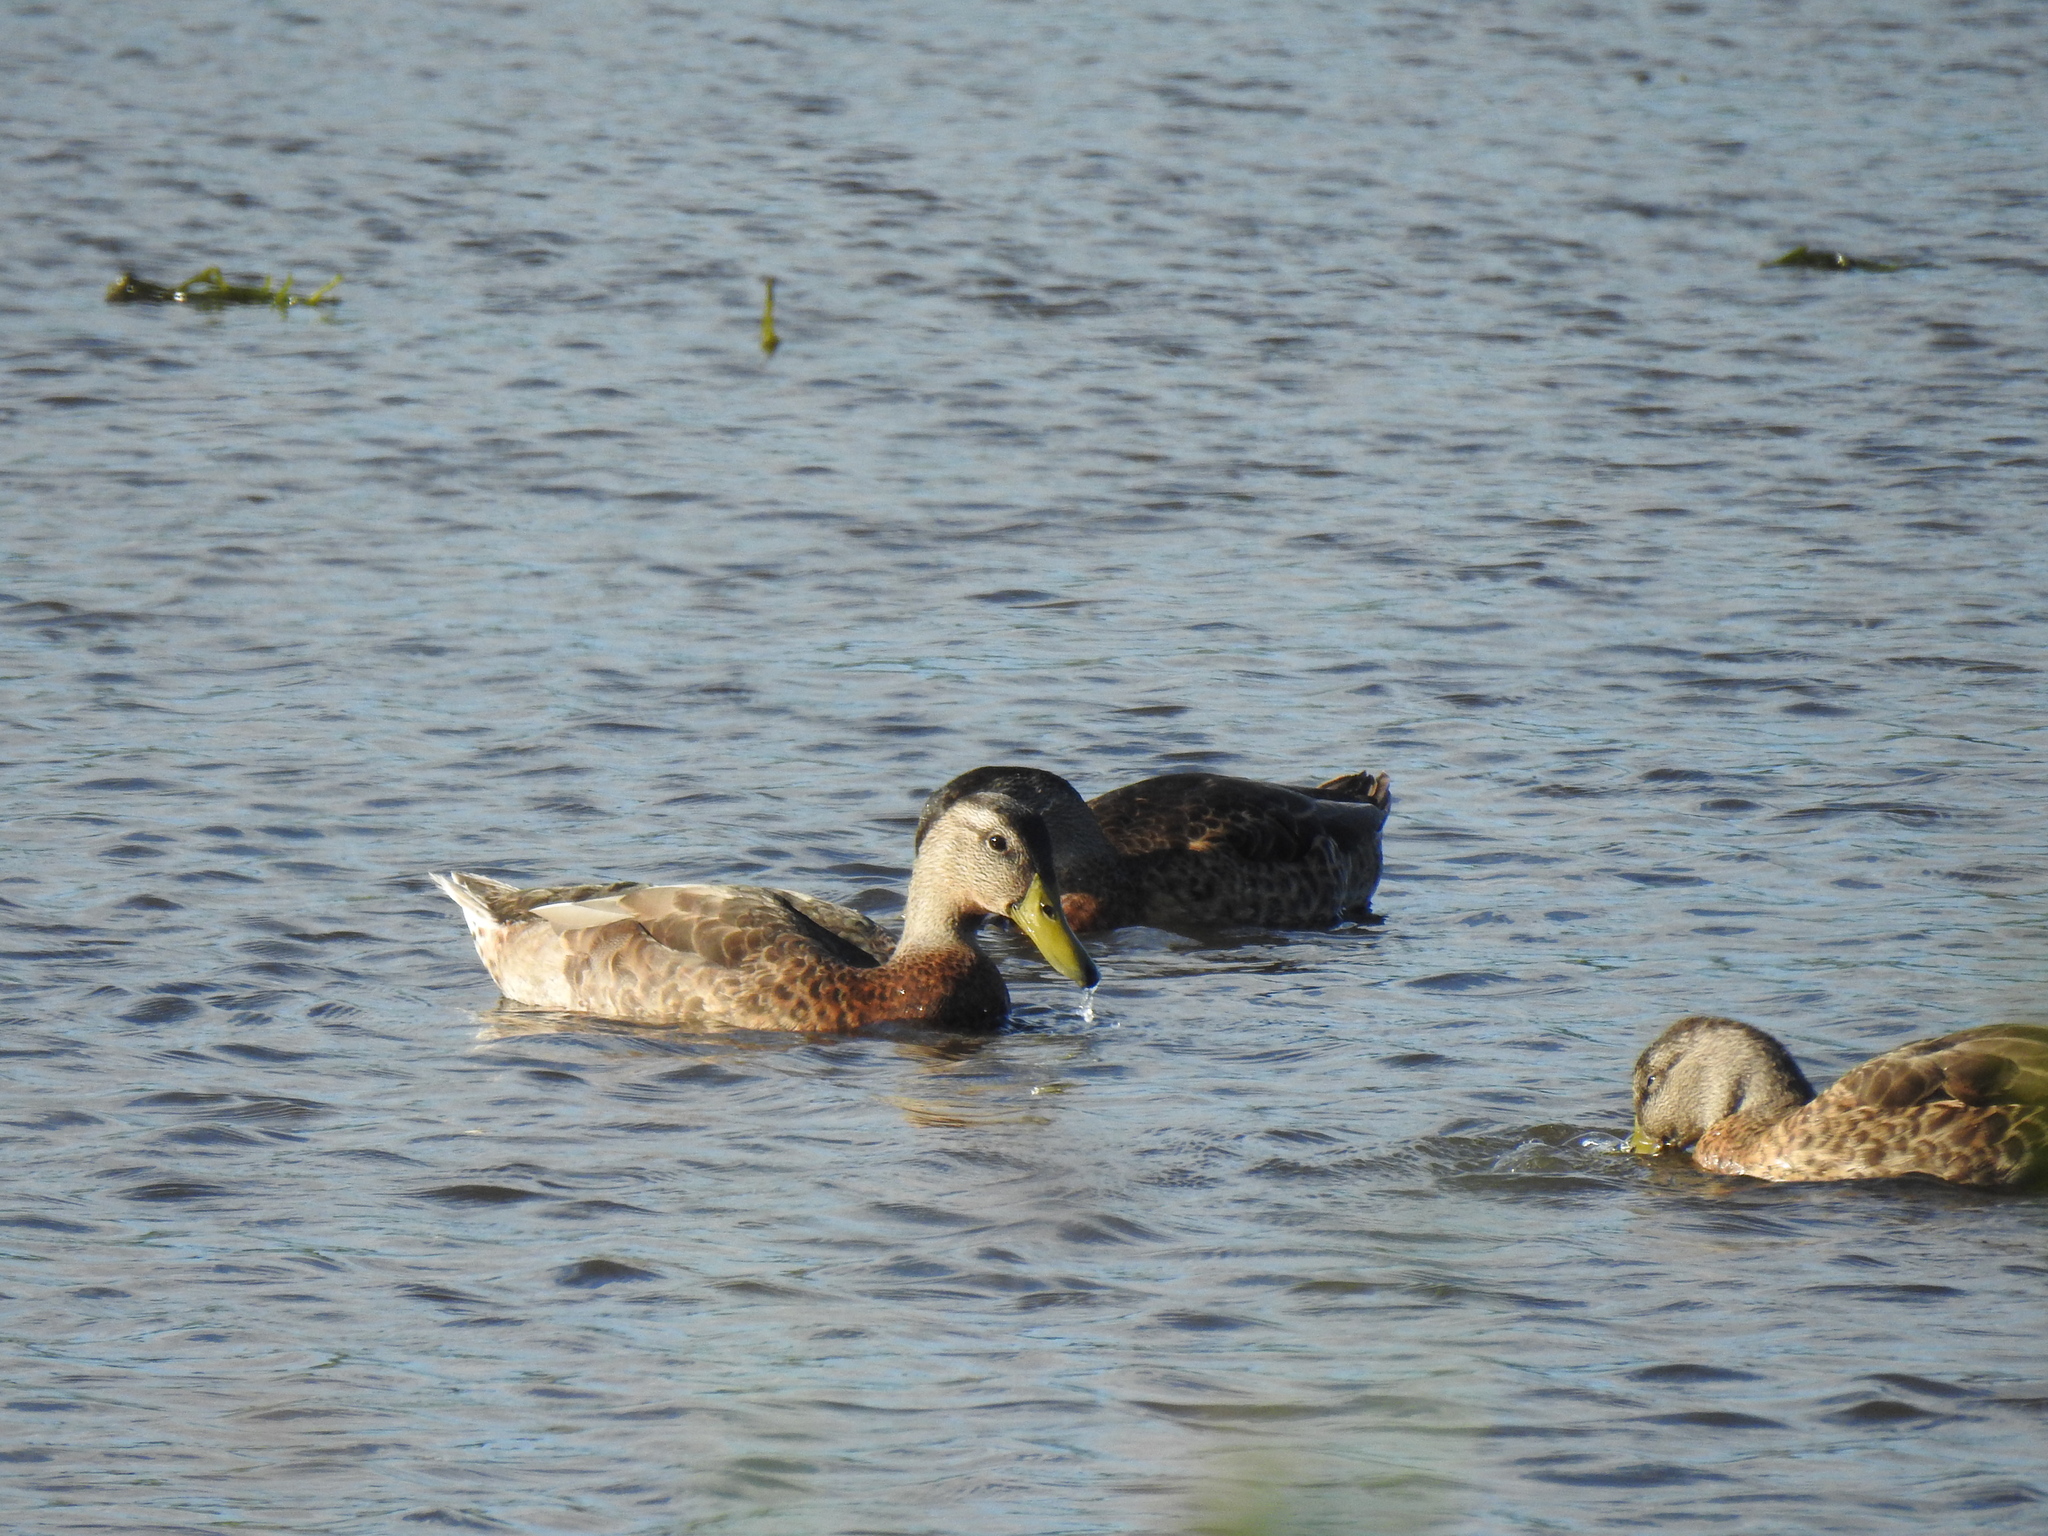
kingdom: Animalia
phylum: Chordata
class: Aves
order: Anseriformes
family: Anatidae
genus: Anas
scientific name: Anas platyrhynchos
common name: Mallard
